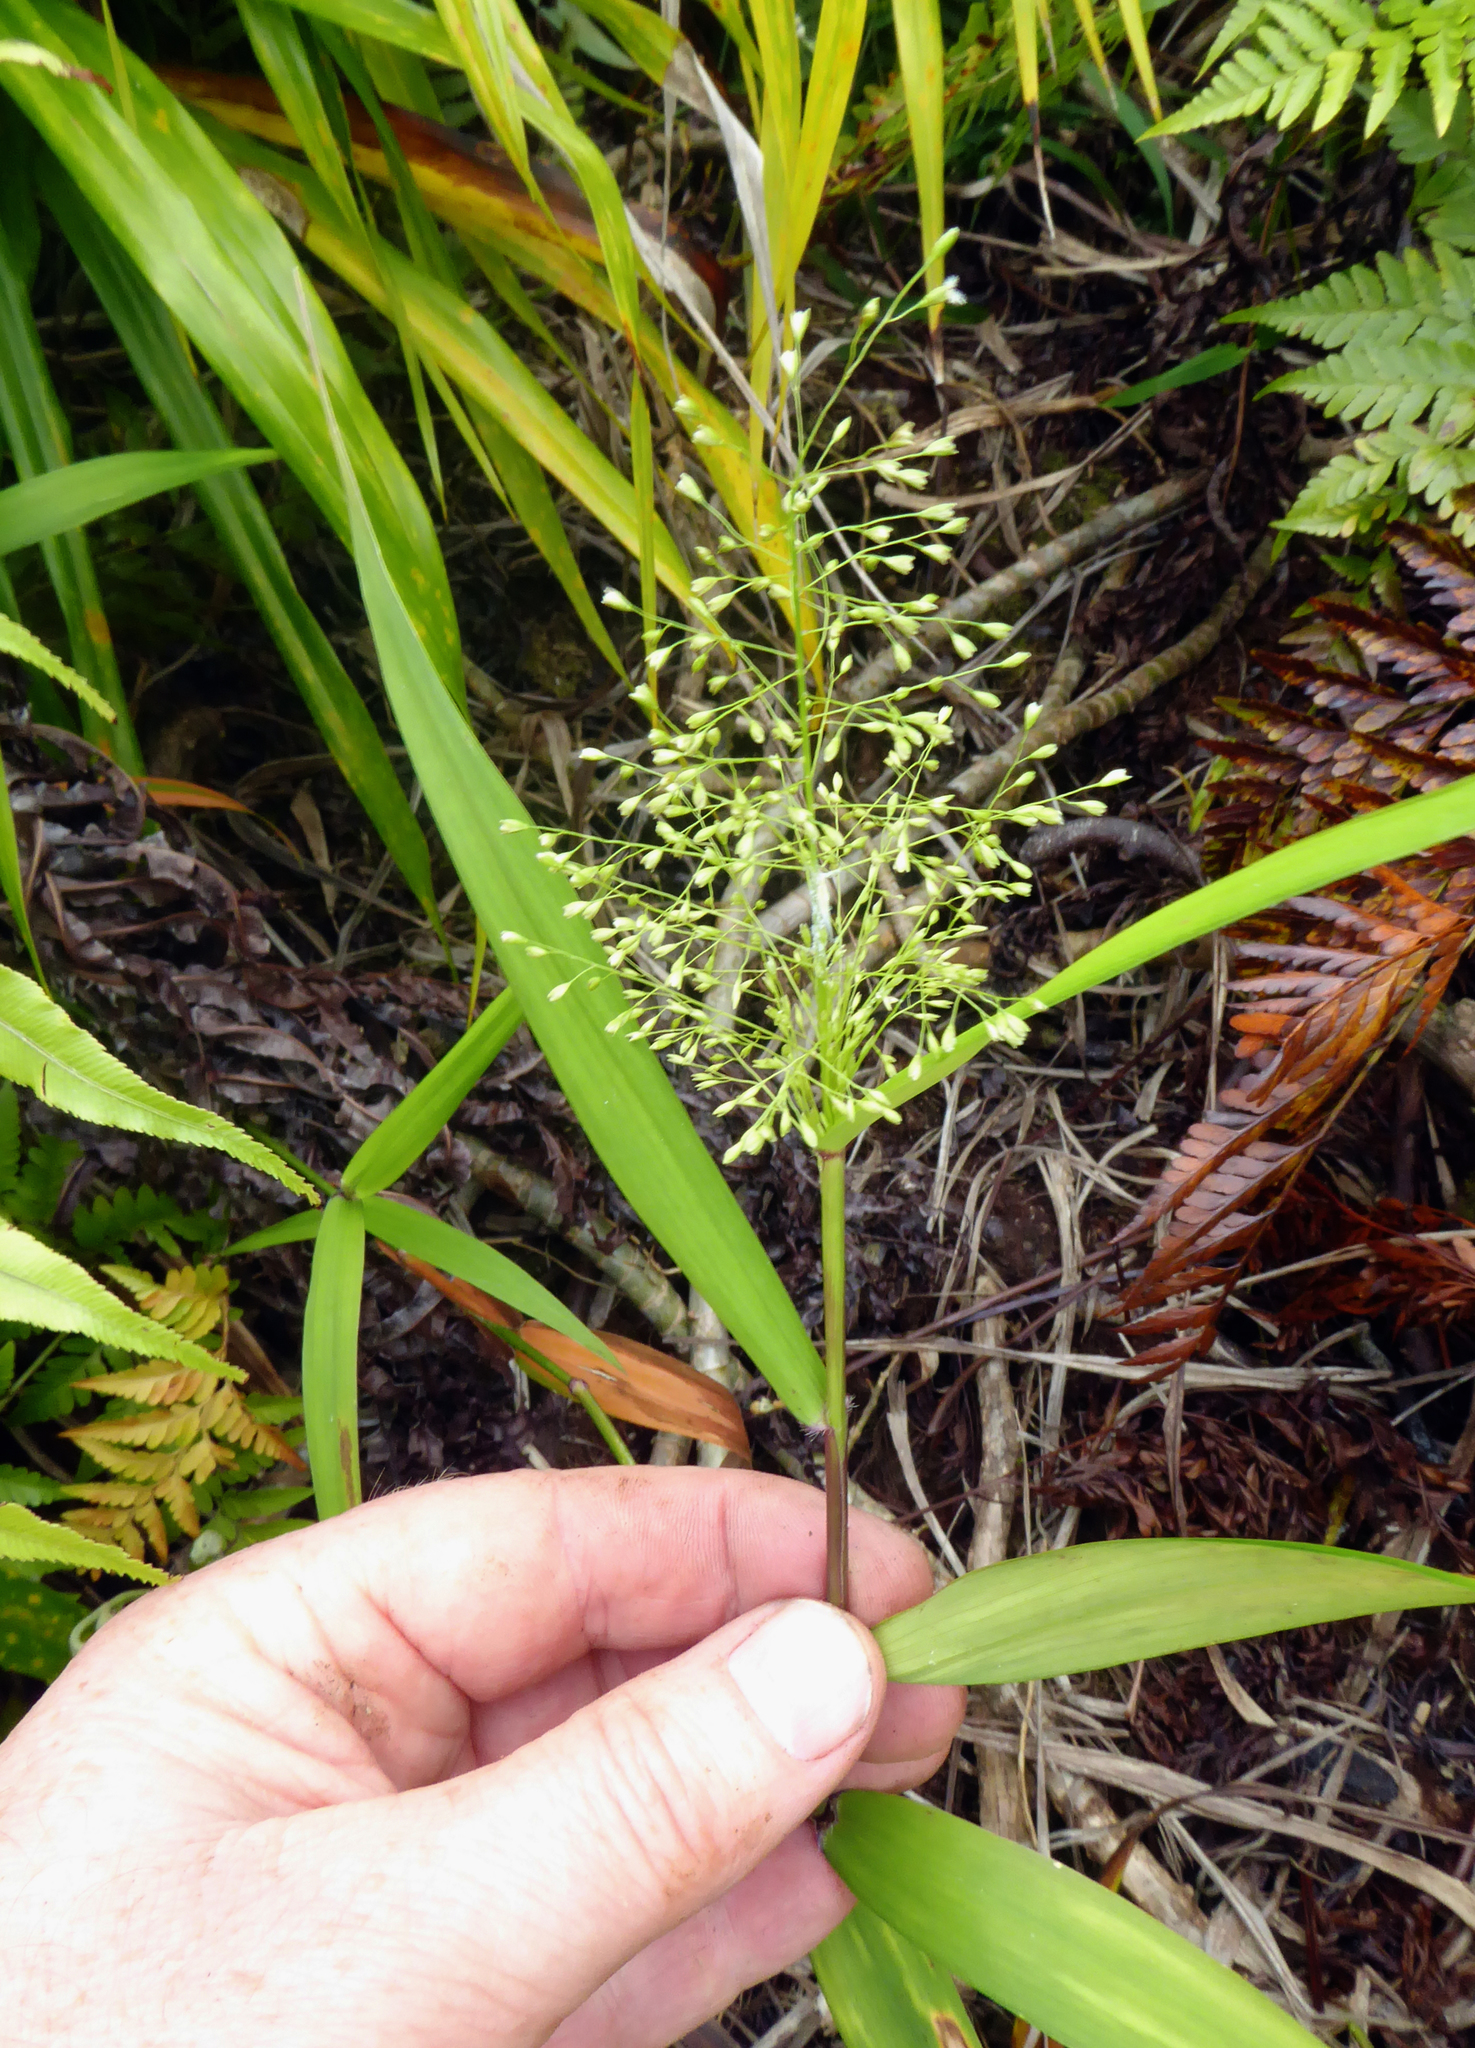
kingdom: Plantae
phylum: Tracheophyta
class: Liliopsida
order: Poales
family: Poaceae
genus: Isachne
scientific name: Isachne distichophylla
